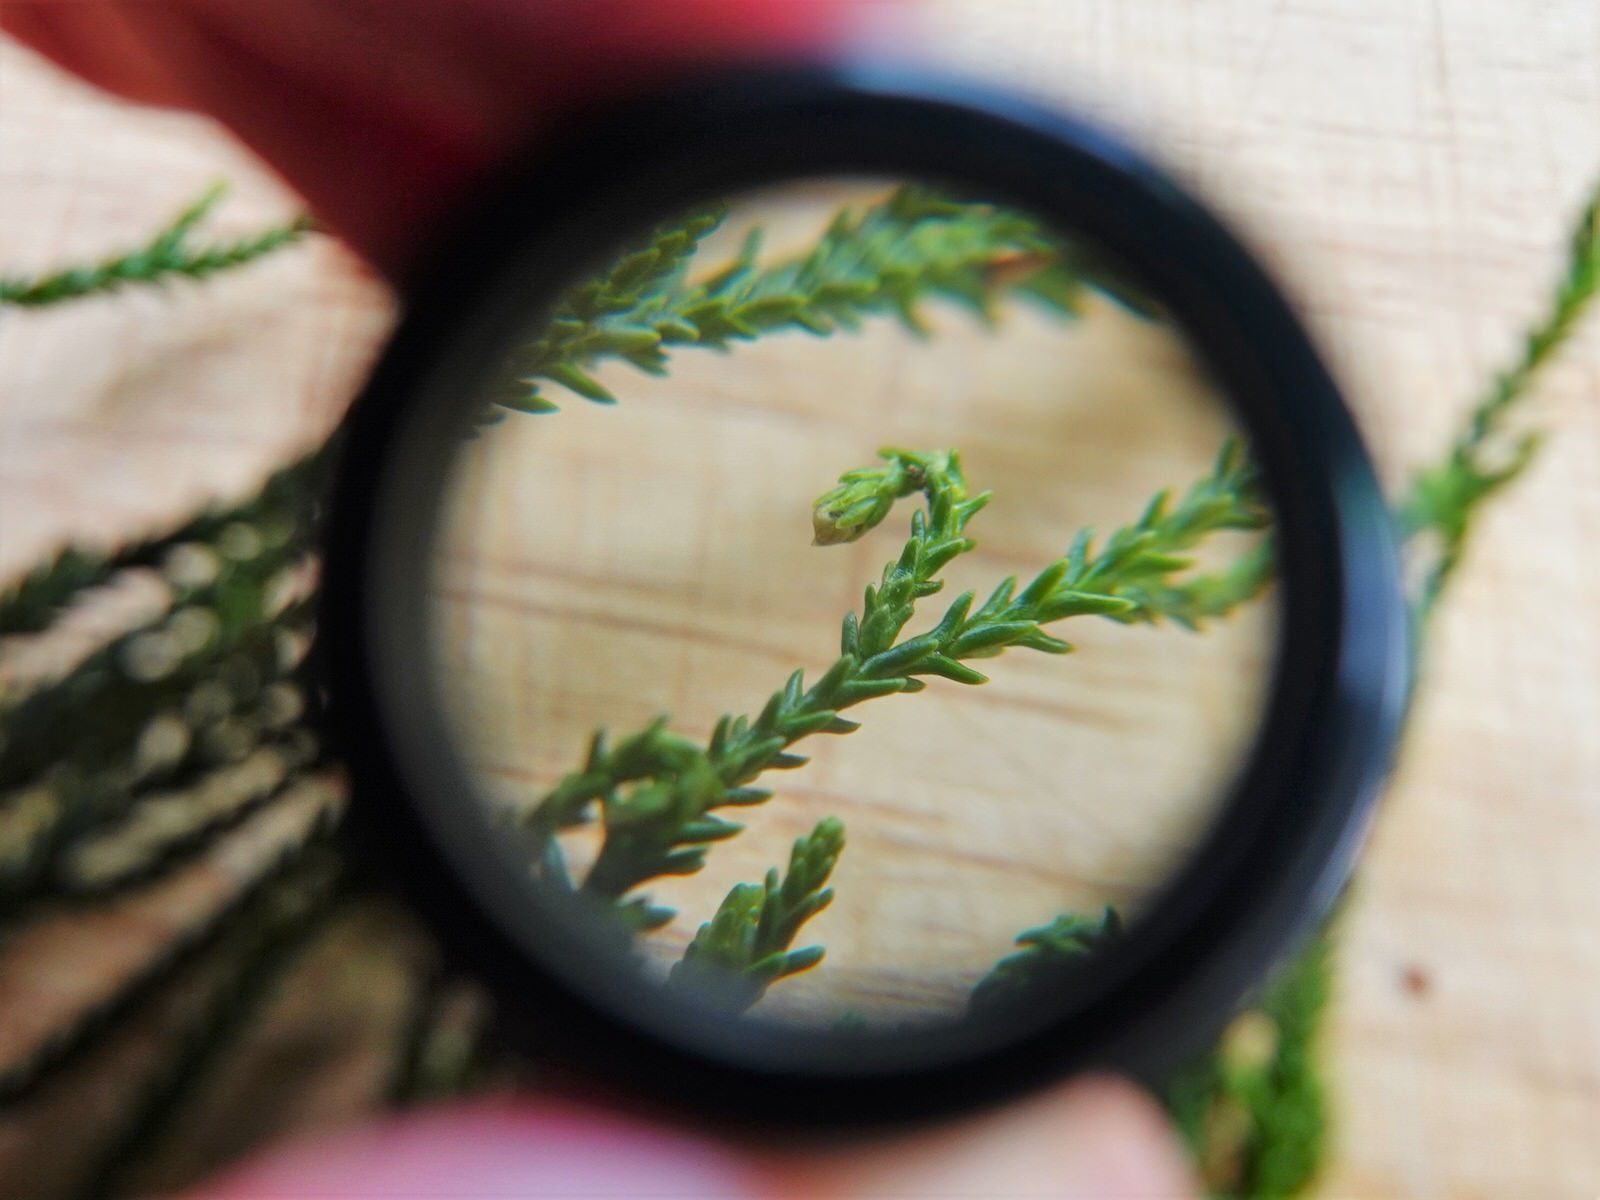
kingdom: Plantae
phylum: Tracheophyta
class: Pinopsida
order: Pinales
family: Podocarpaceae
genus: Dacrydium
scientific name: Dacrydium cupressinum
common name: Red pine
